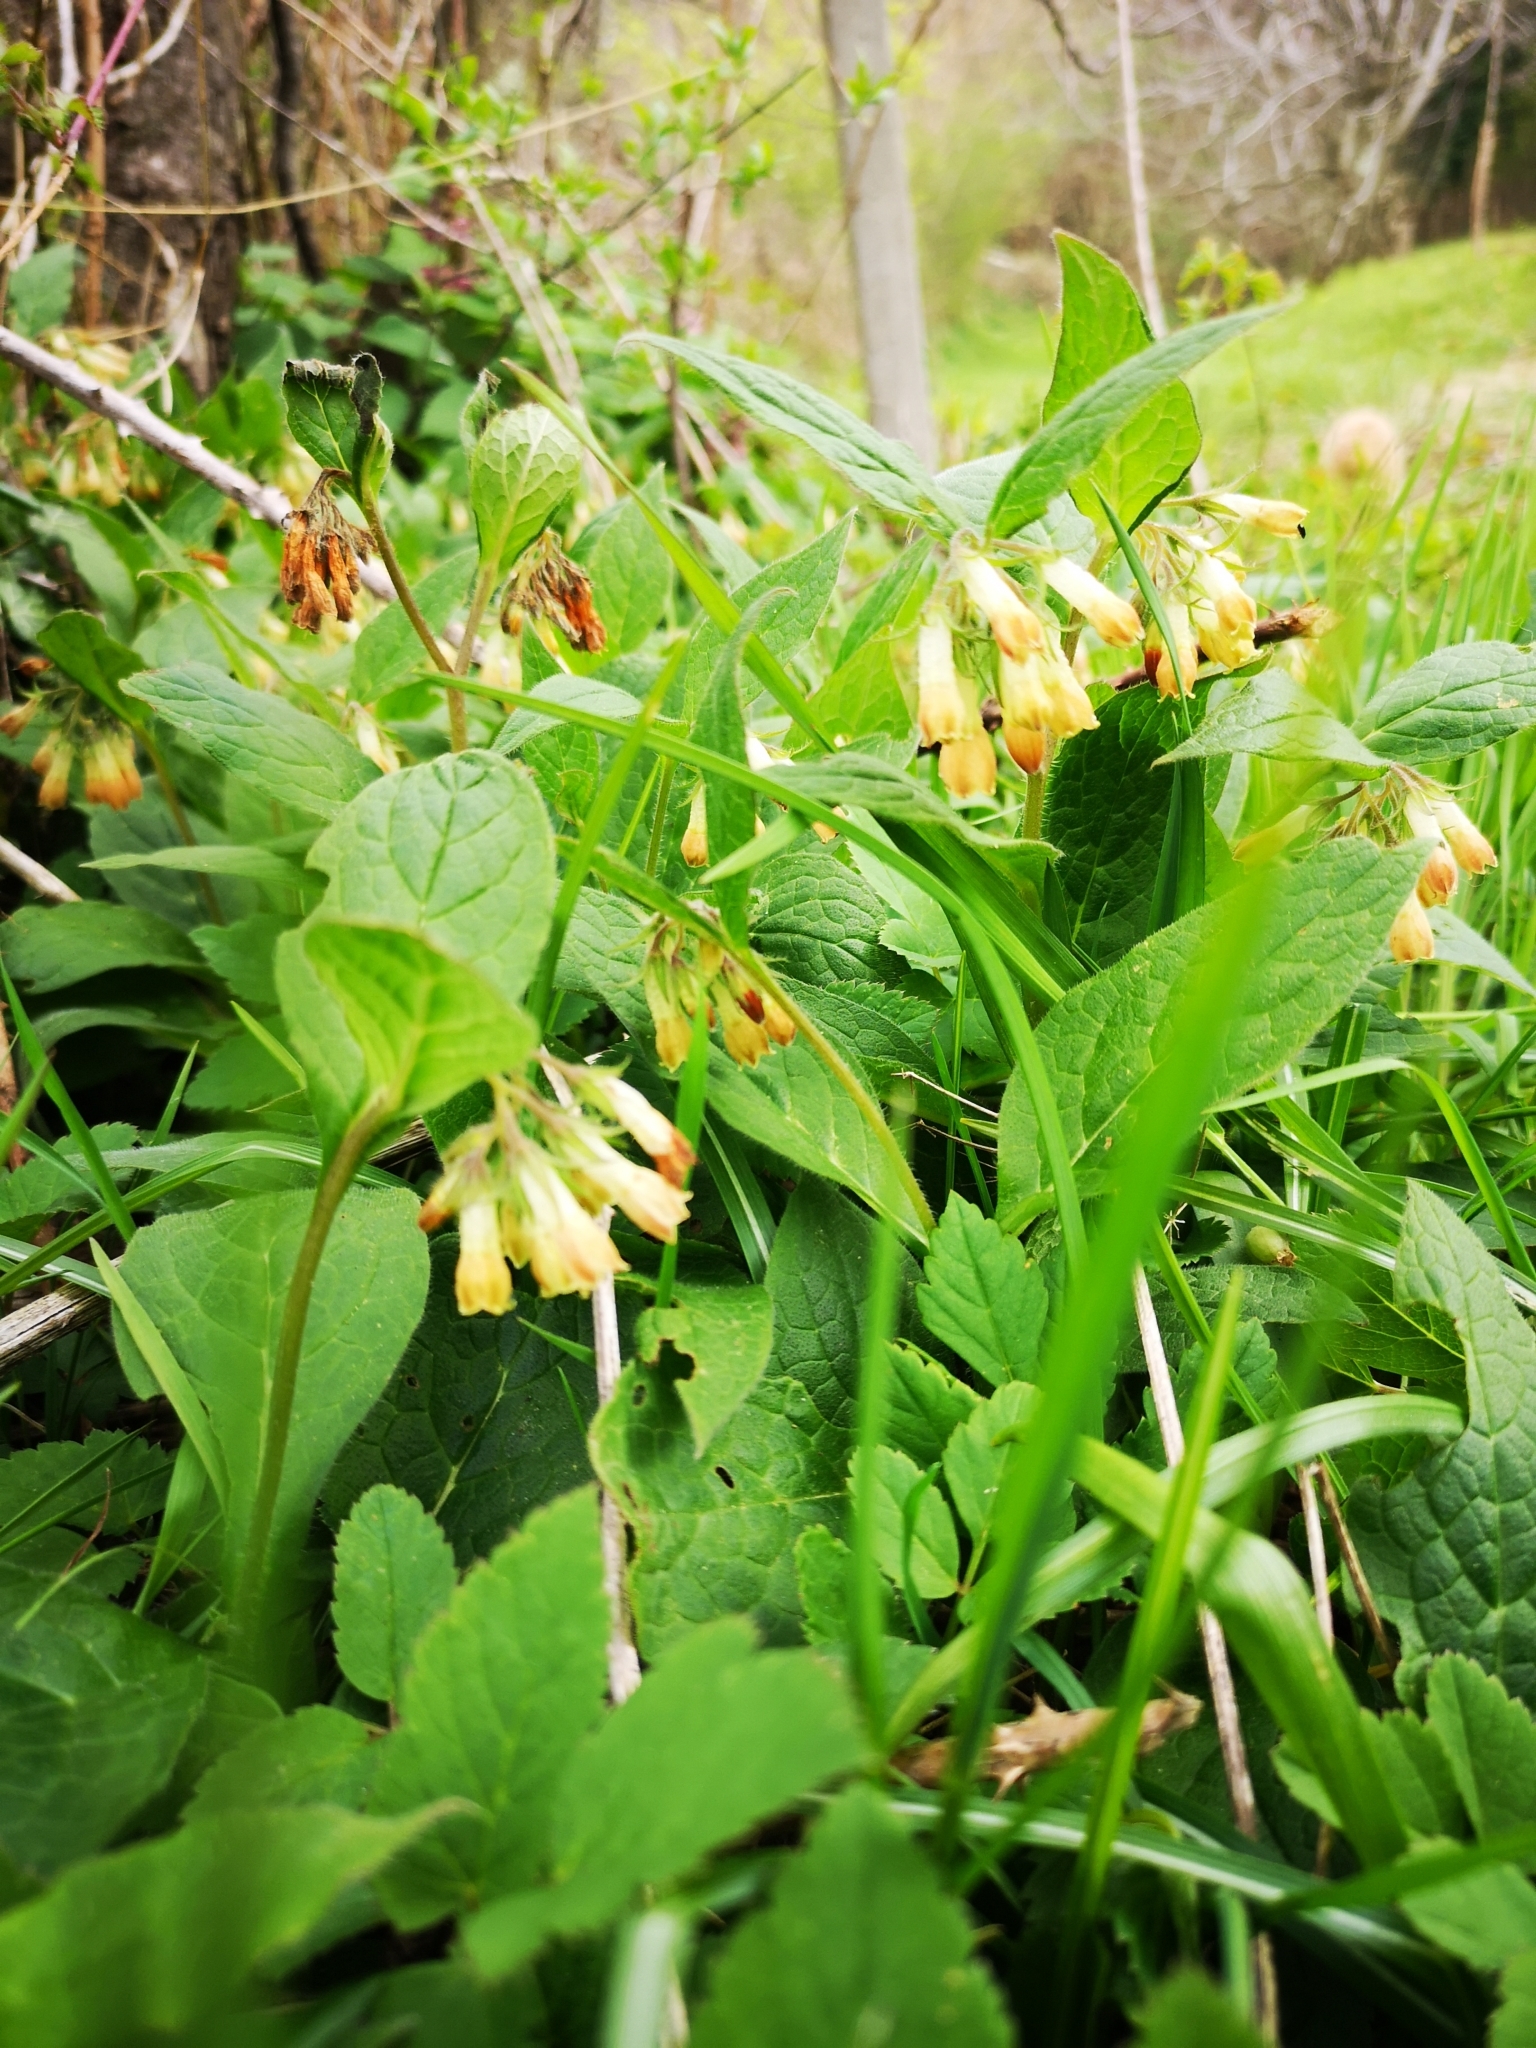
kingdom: Plantae
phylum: Tracheophyta
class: Magnoliopsida
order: Boraginales
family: Boraginaceae
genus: Symphytum
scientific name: Symphytum tuberosum
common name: Tuberous comfrey
